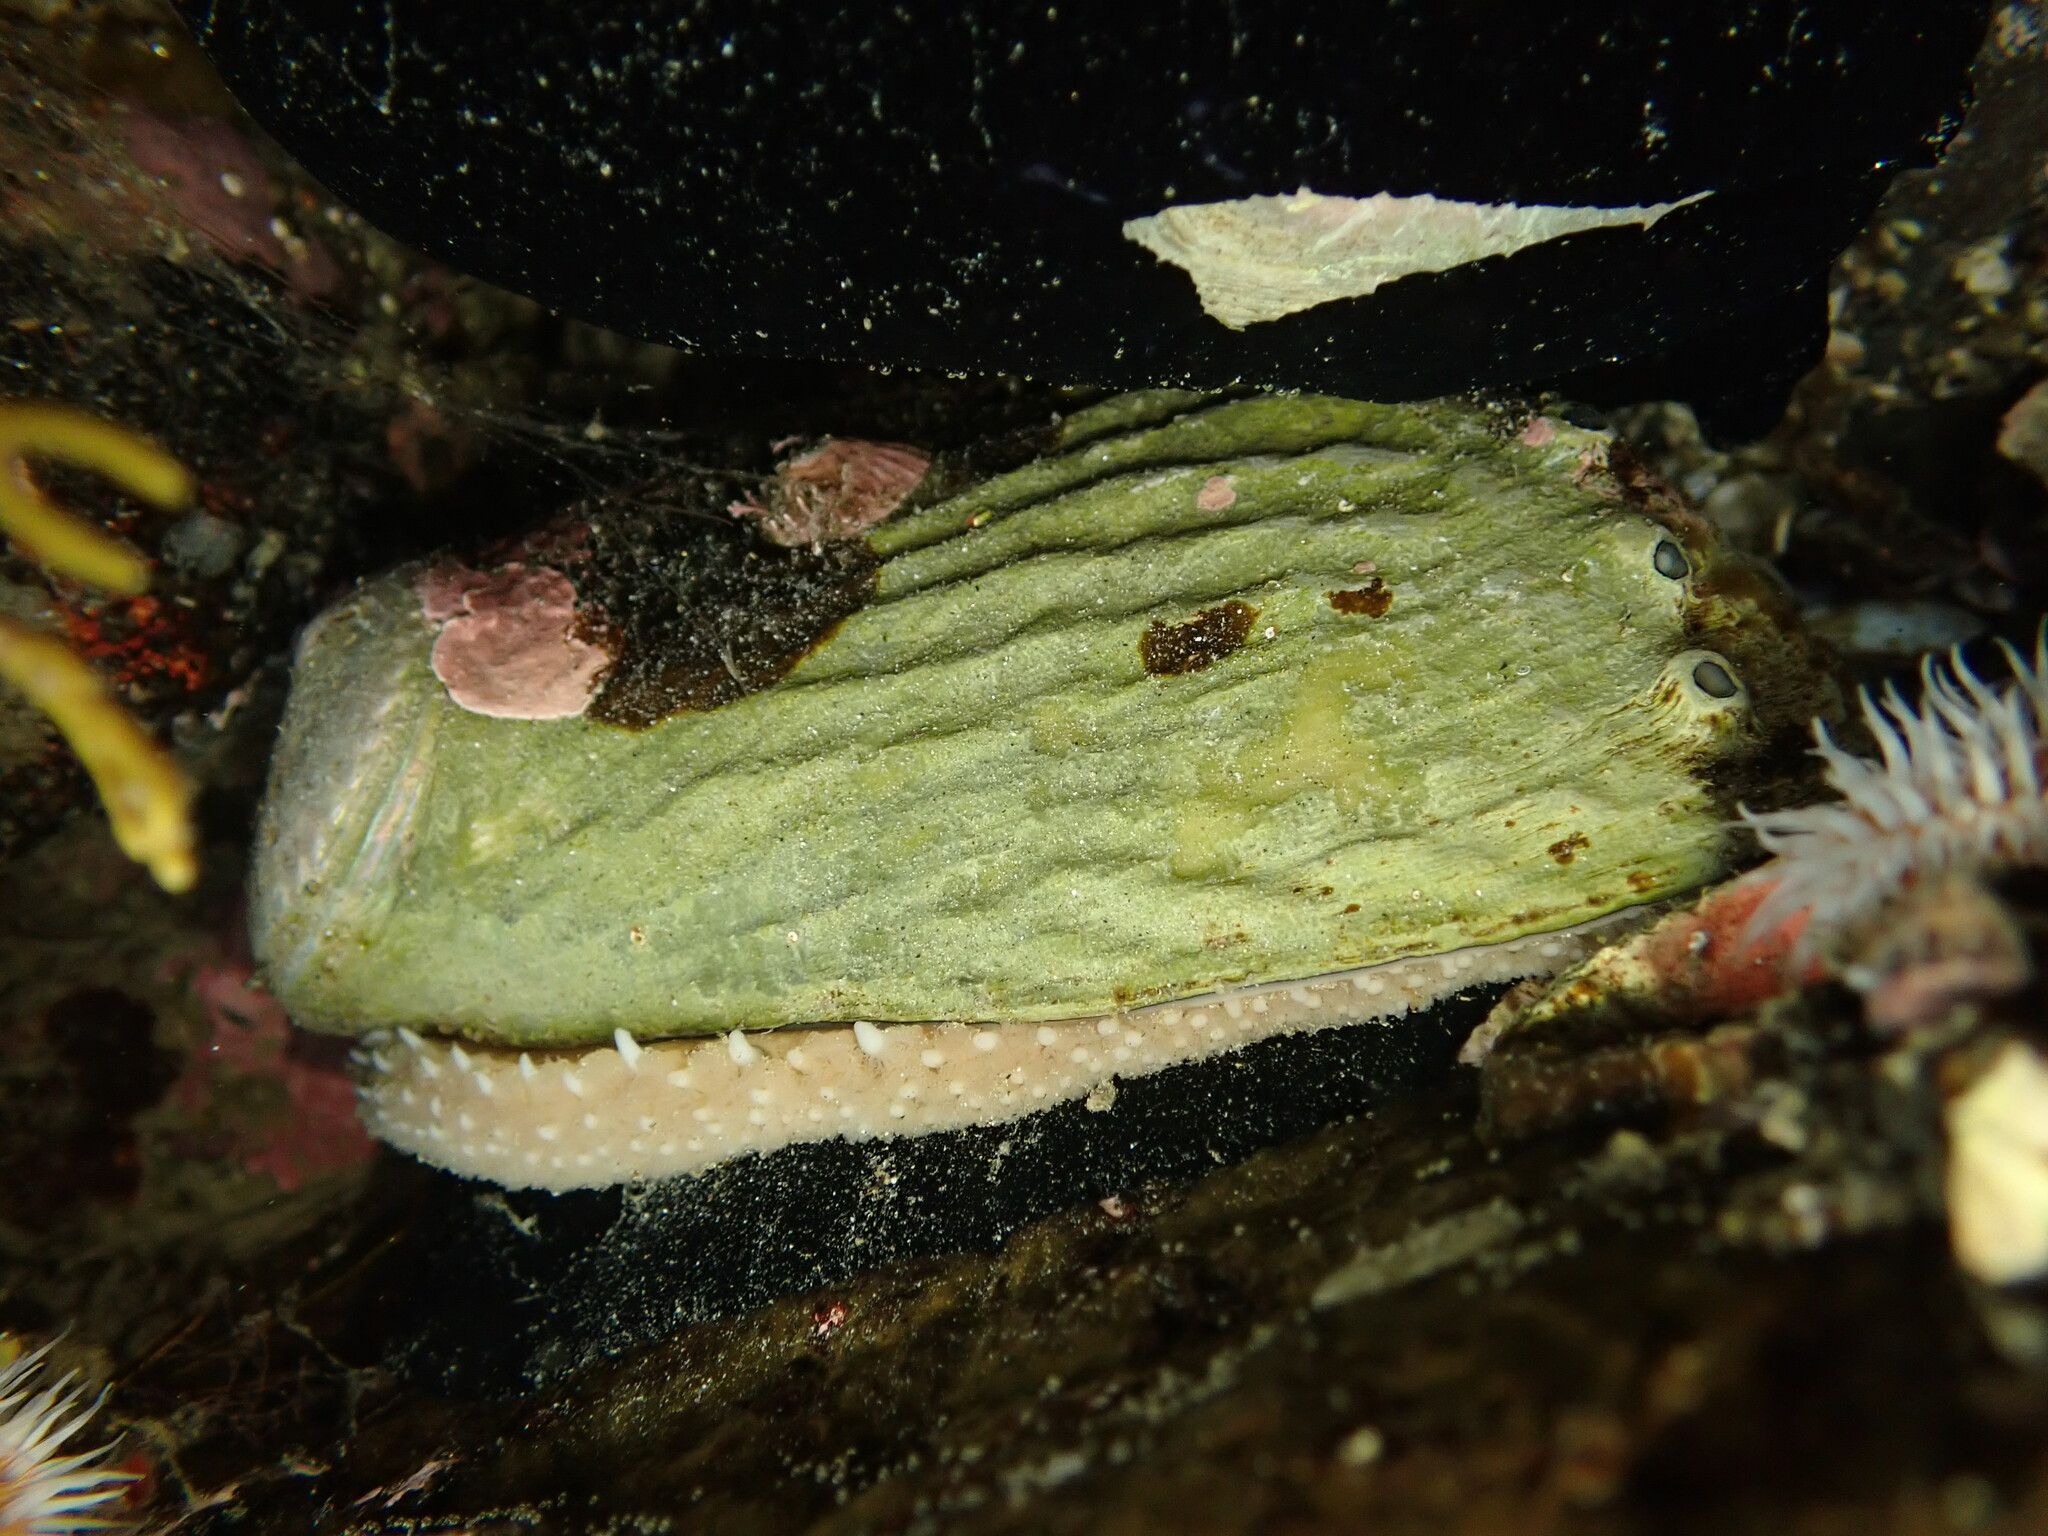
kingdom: Animalia
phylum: Mollusca
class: Gastropoda
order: Lepetellida
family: Haliotidae
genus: Haliotis
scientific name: Haliotis australis
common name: Silver abalone
